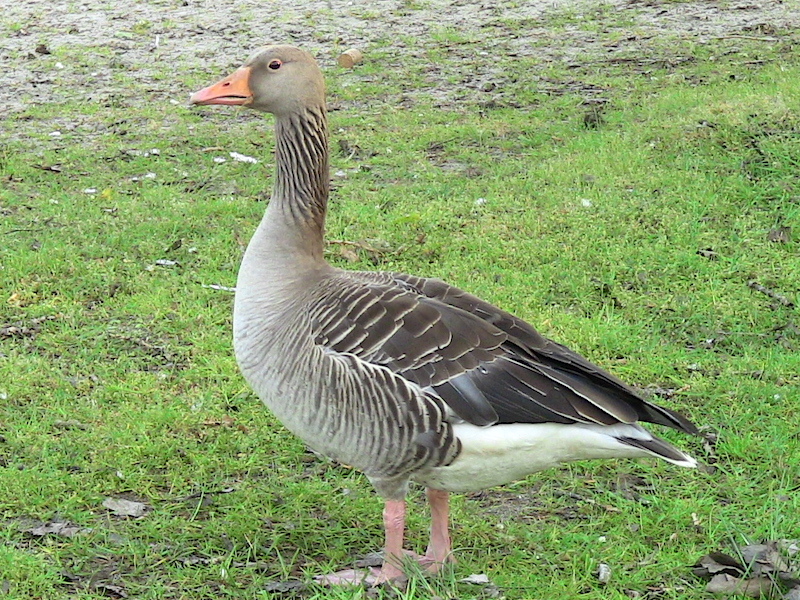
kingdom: Animalia
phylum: Chordata
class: Aves
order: Anseriformes
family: Anatidae
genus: Anser
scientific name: Anser anser
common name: Greylag goose
